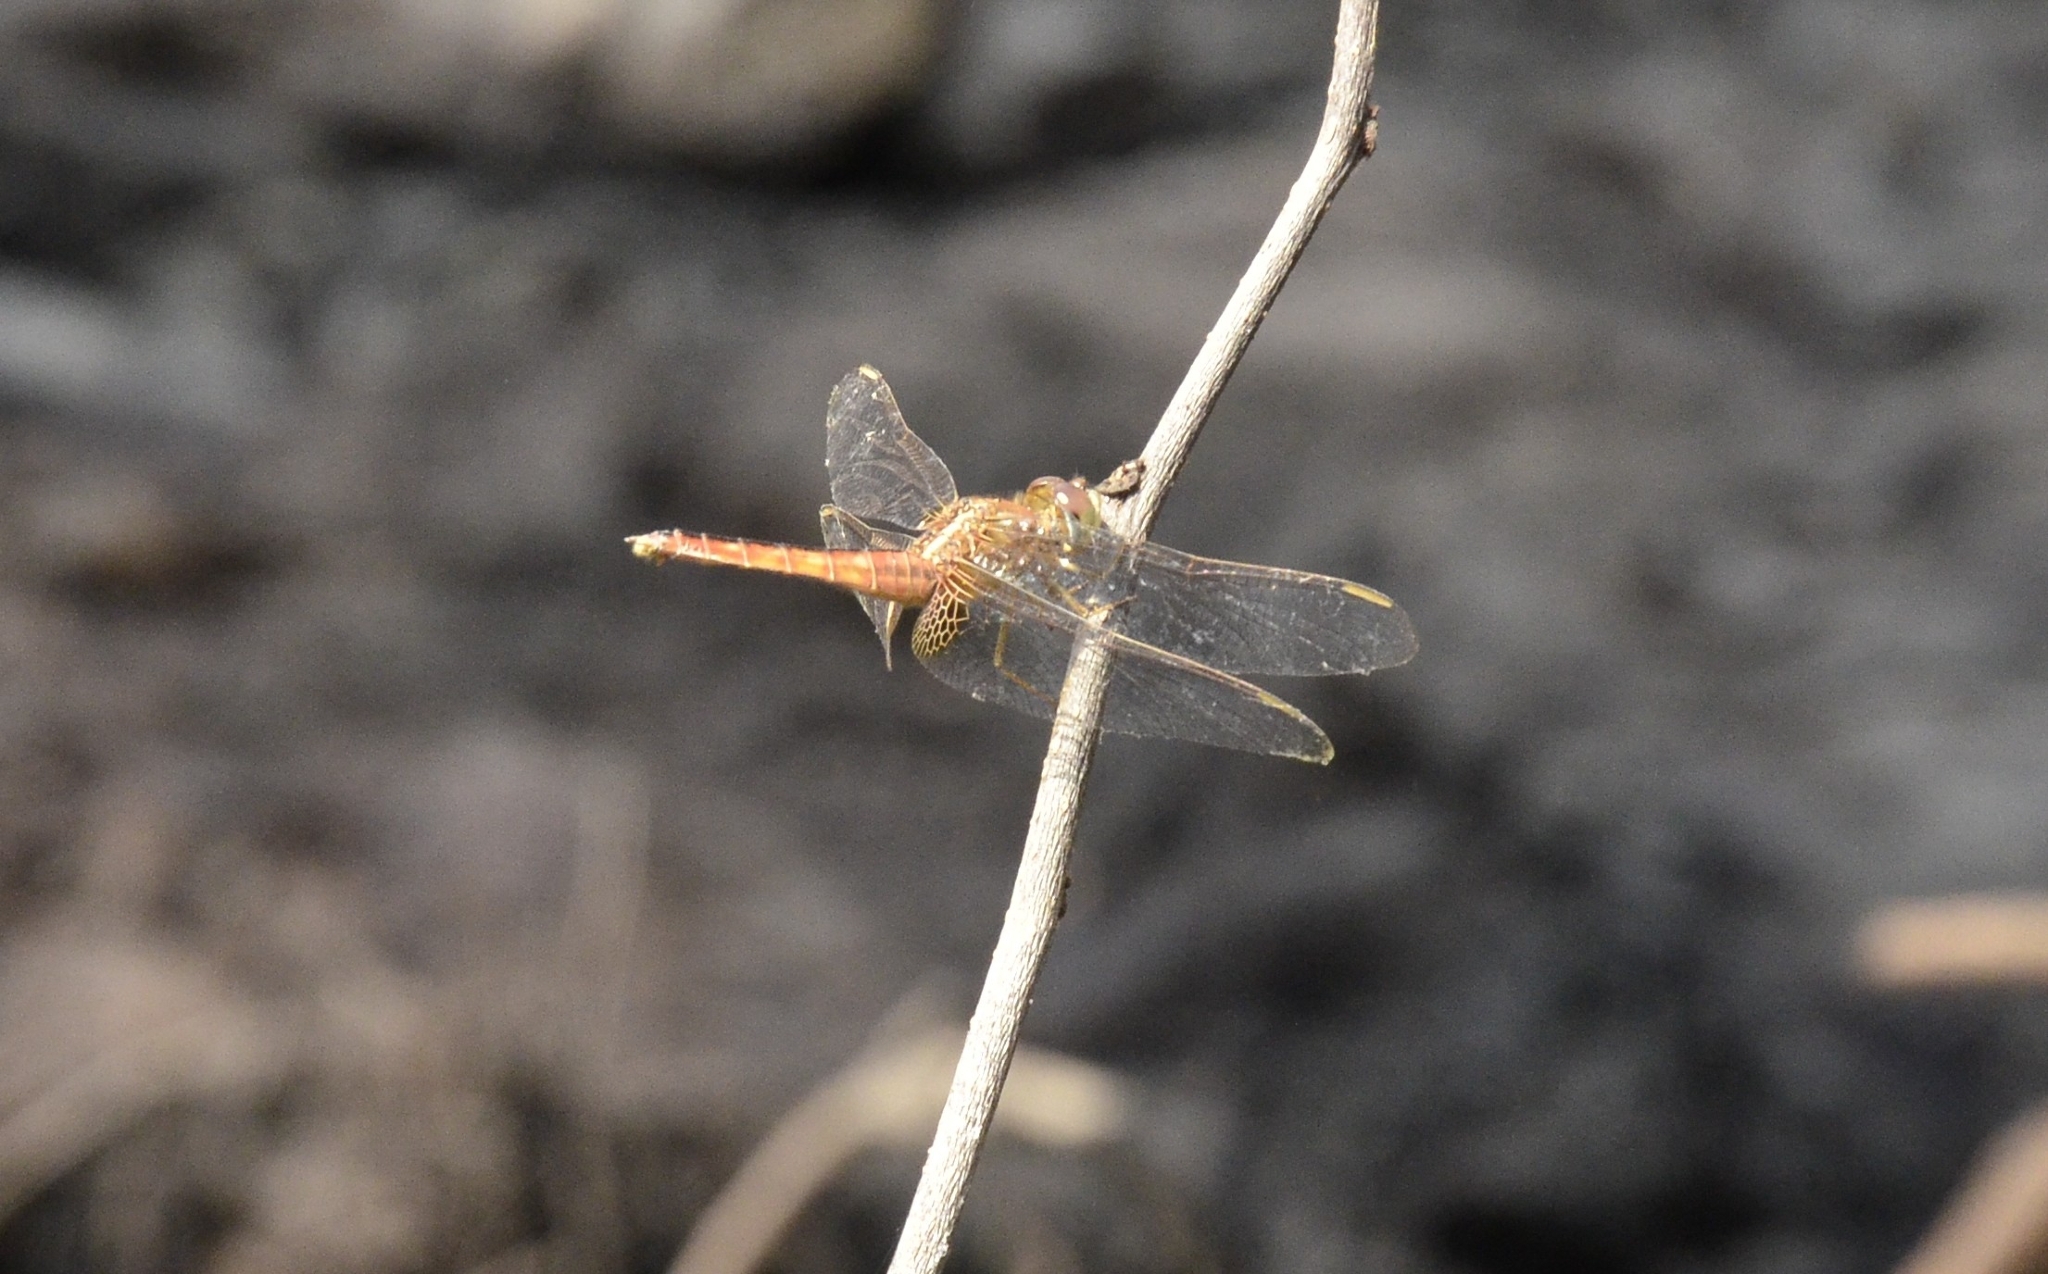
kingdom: Animalia
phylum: Arthropoda
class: Insecta
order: Odonata
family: Libellulidae
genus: Crocothemis
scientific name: Crocothemis servilia
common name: Scarlet skimmer
